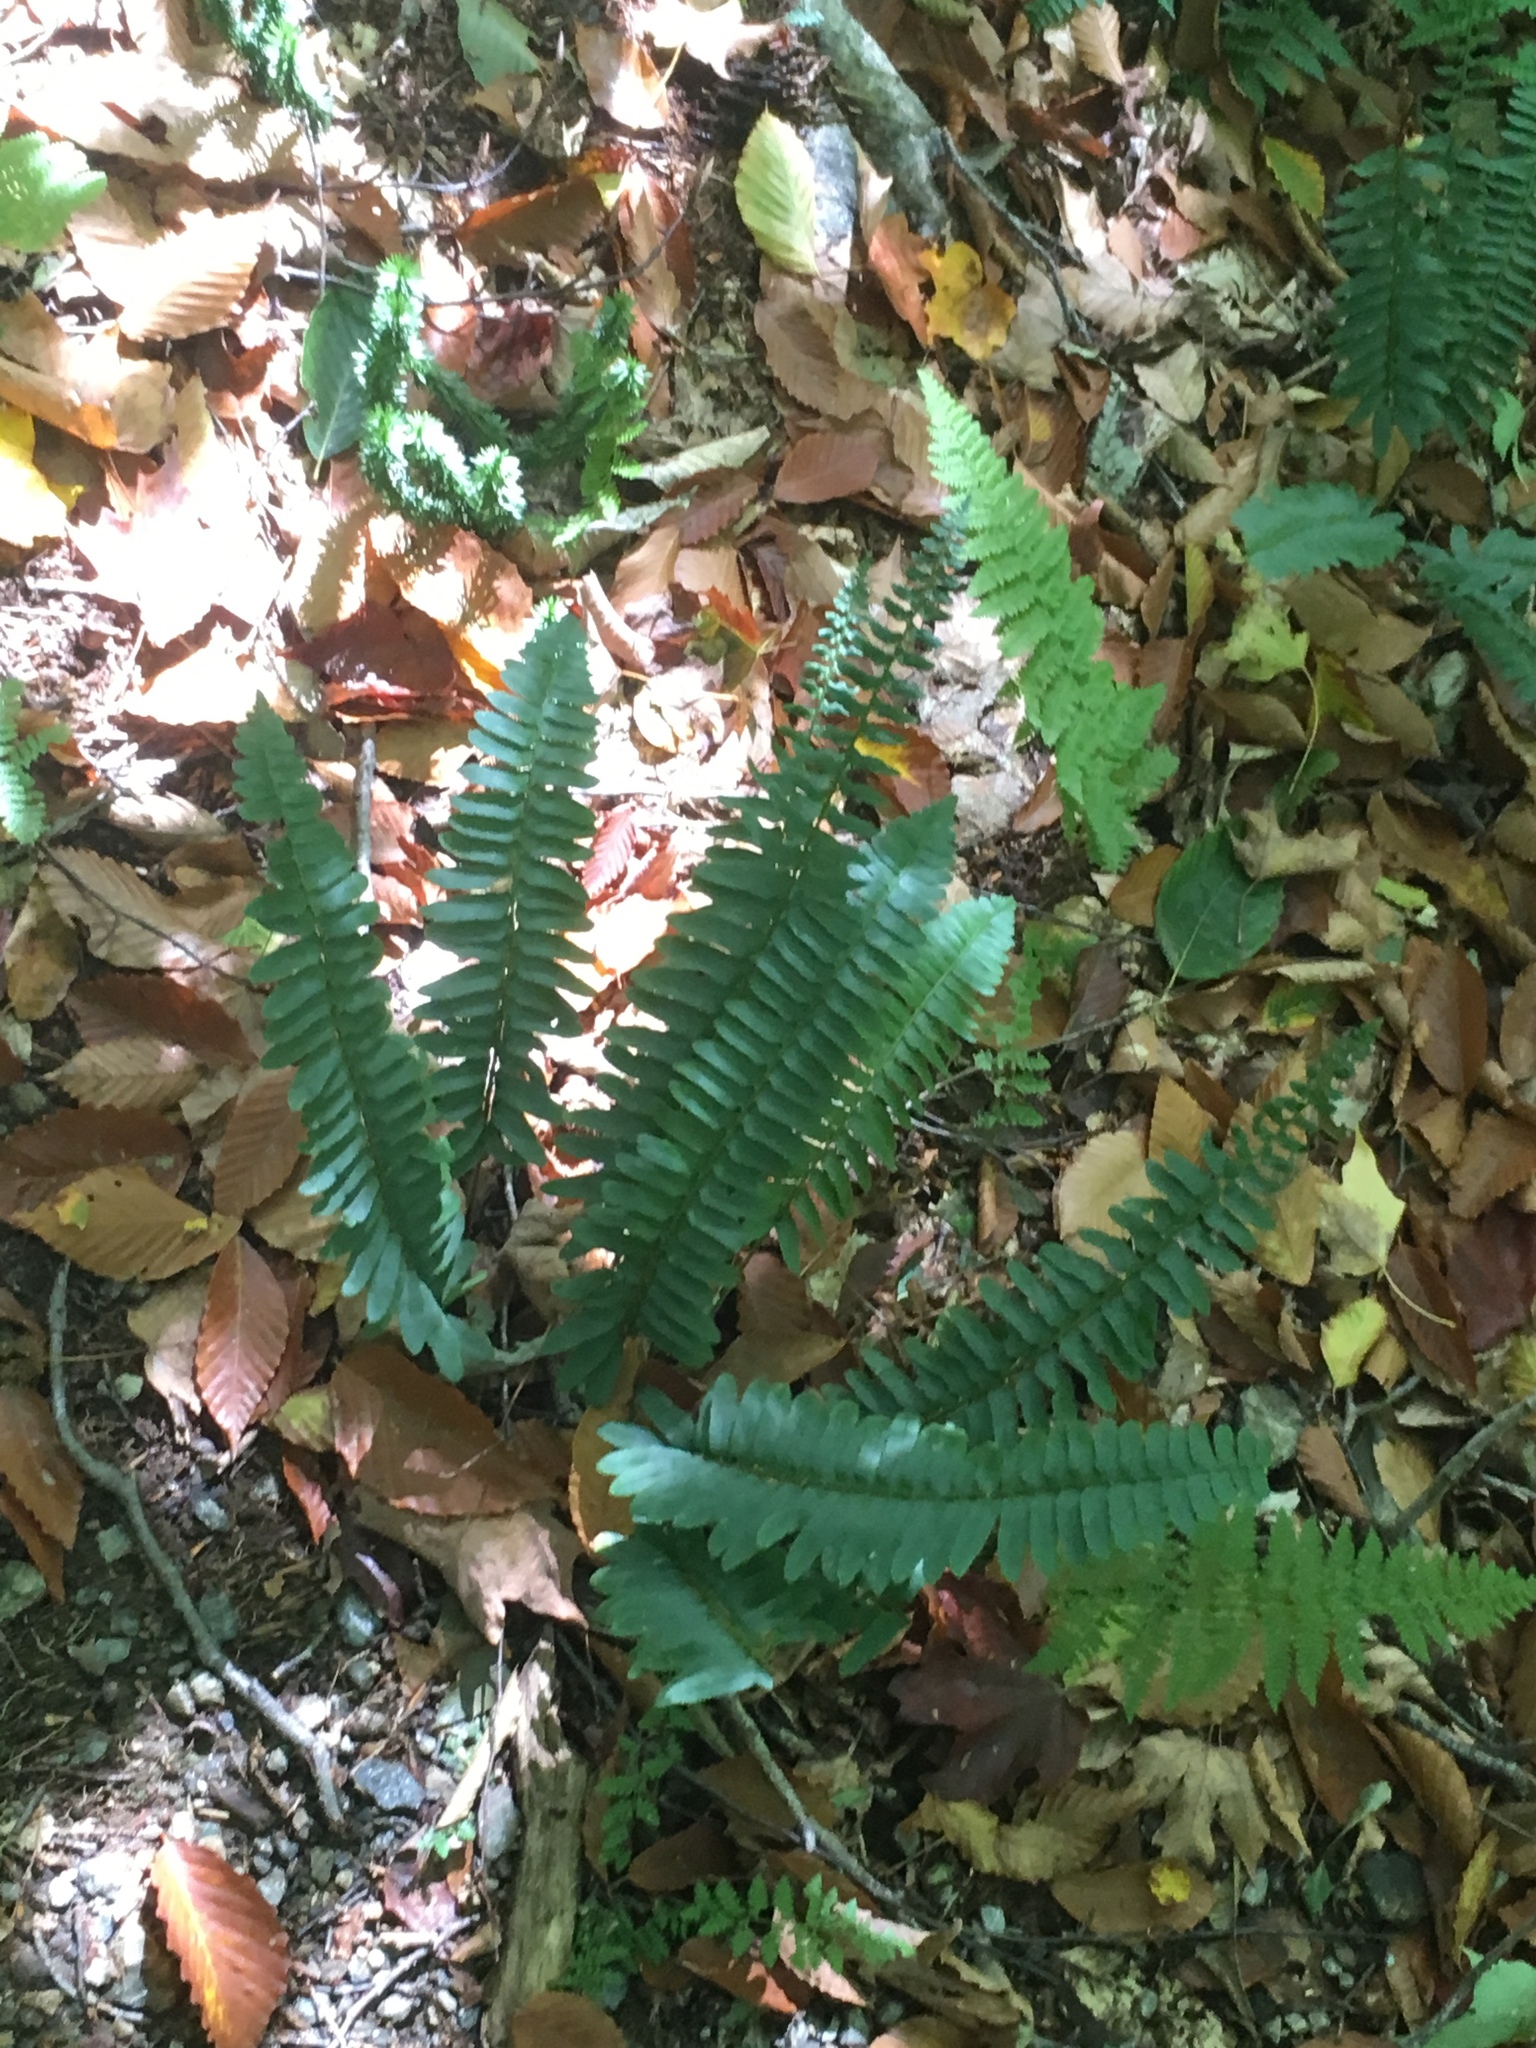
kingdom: Plantae
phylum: Tracheophyta
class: Polypodiopsida
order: Polypodiales
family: Dryopteridaceae
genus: Polystichum
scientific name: Polystichum acrostichoides
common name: Christmas fern
